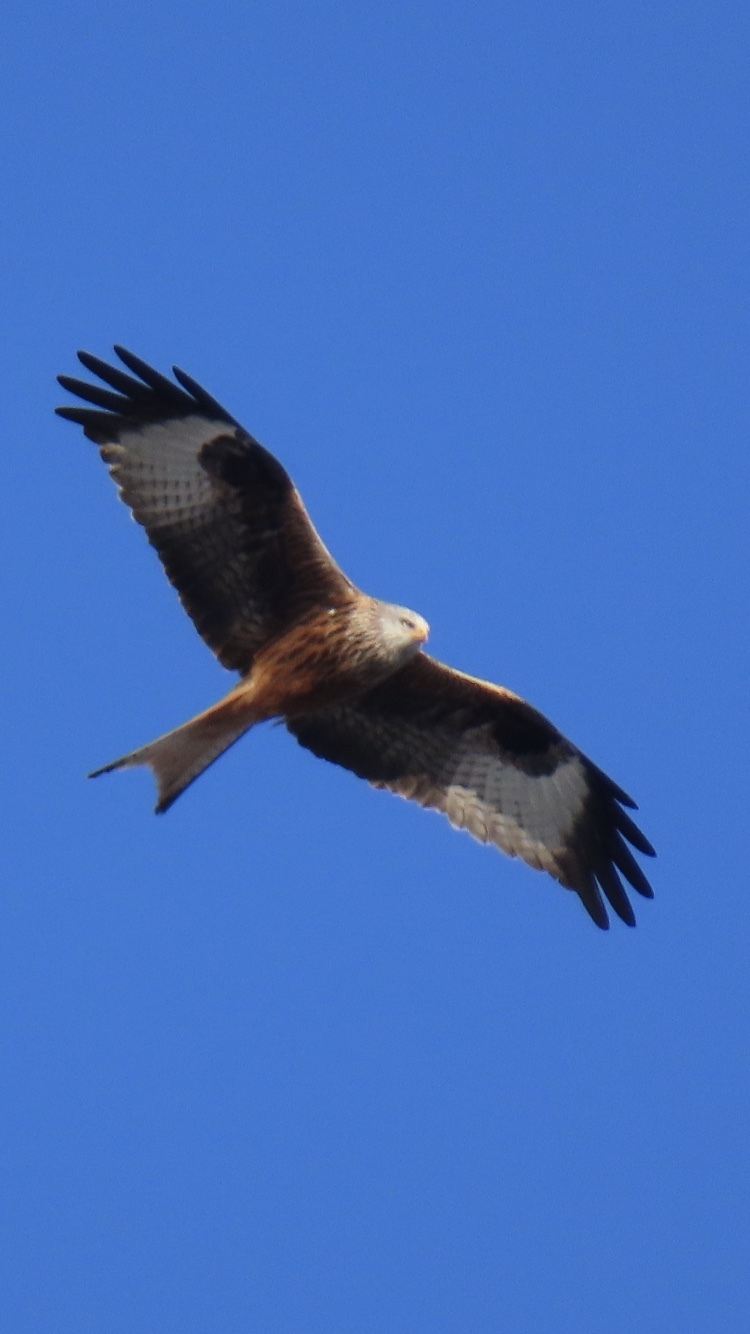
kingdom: Animalia
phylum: Chordata
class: Aves
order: Accipitriformes
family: Accipitridae
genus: Milvus
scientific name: Milvus milvus
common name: Red kite
